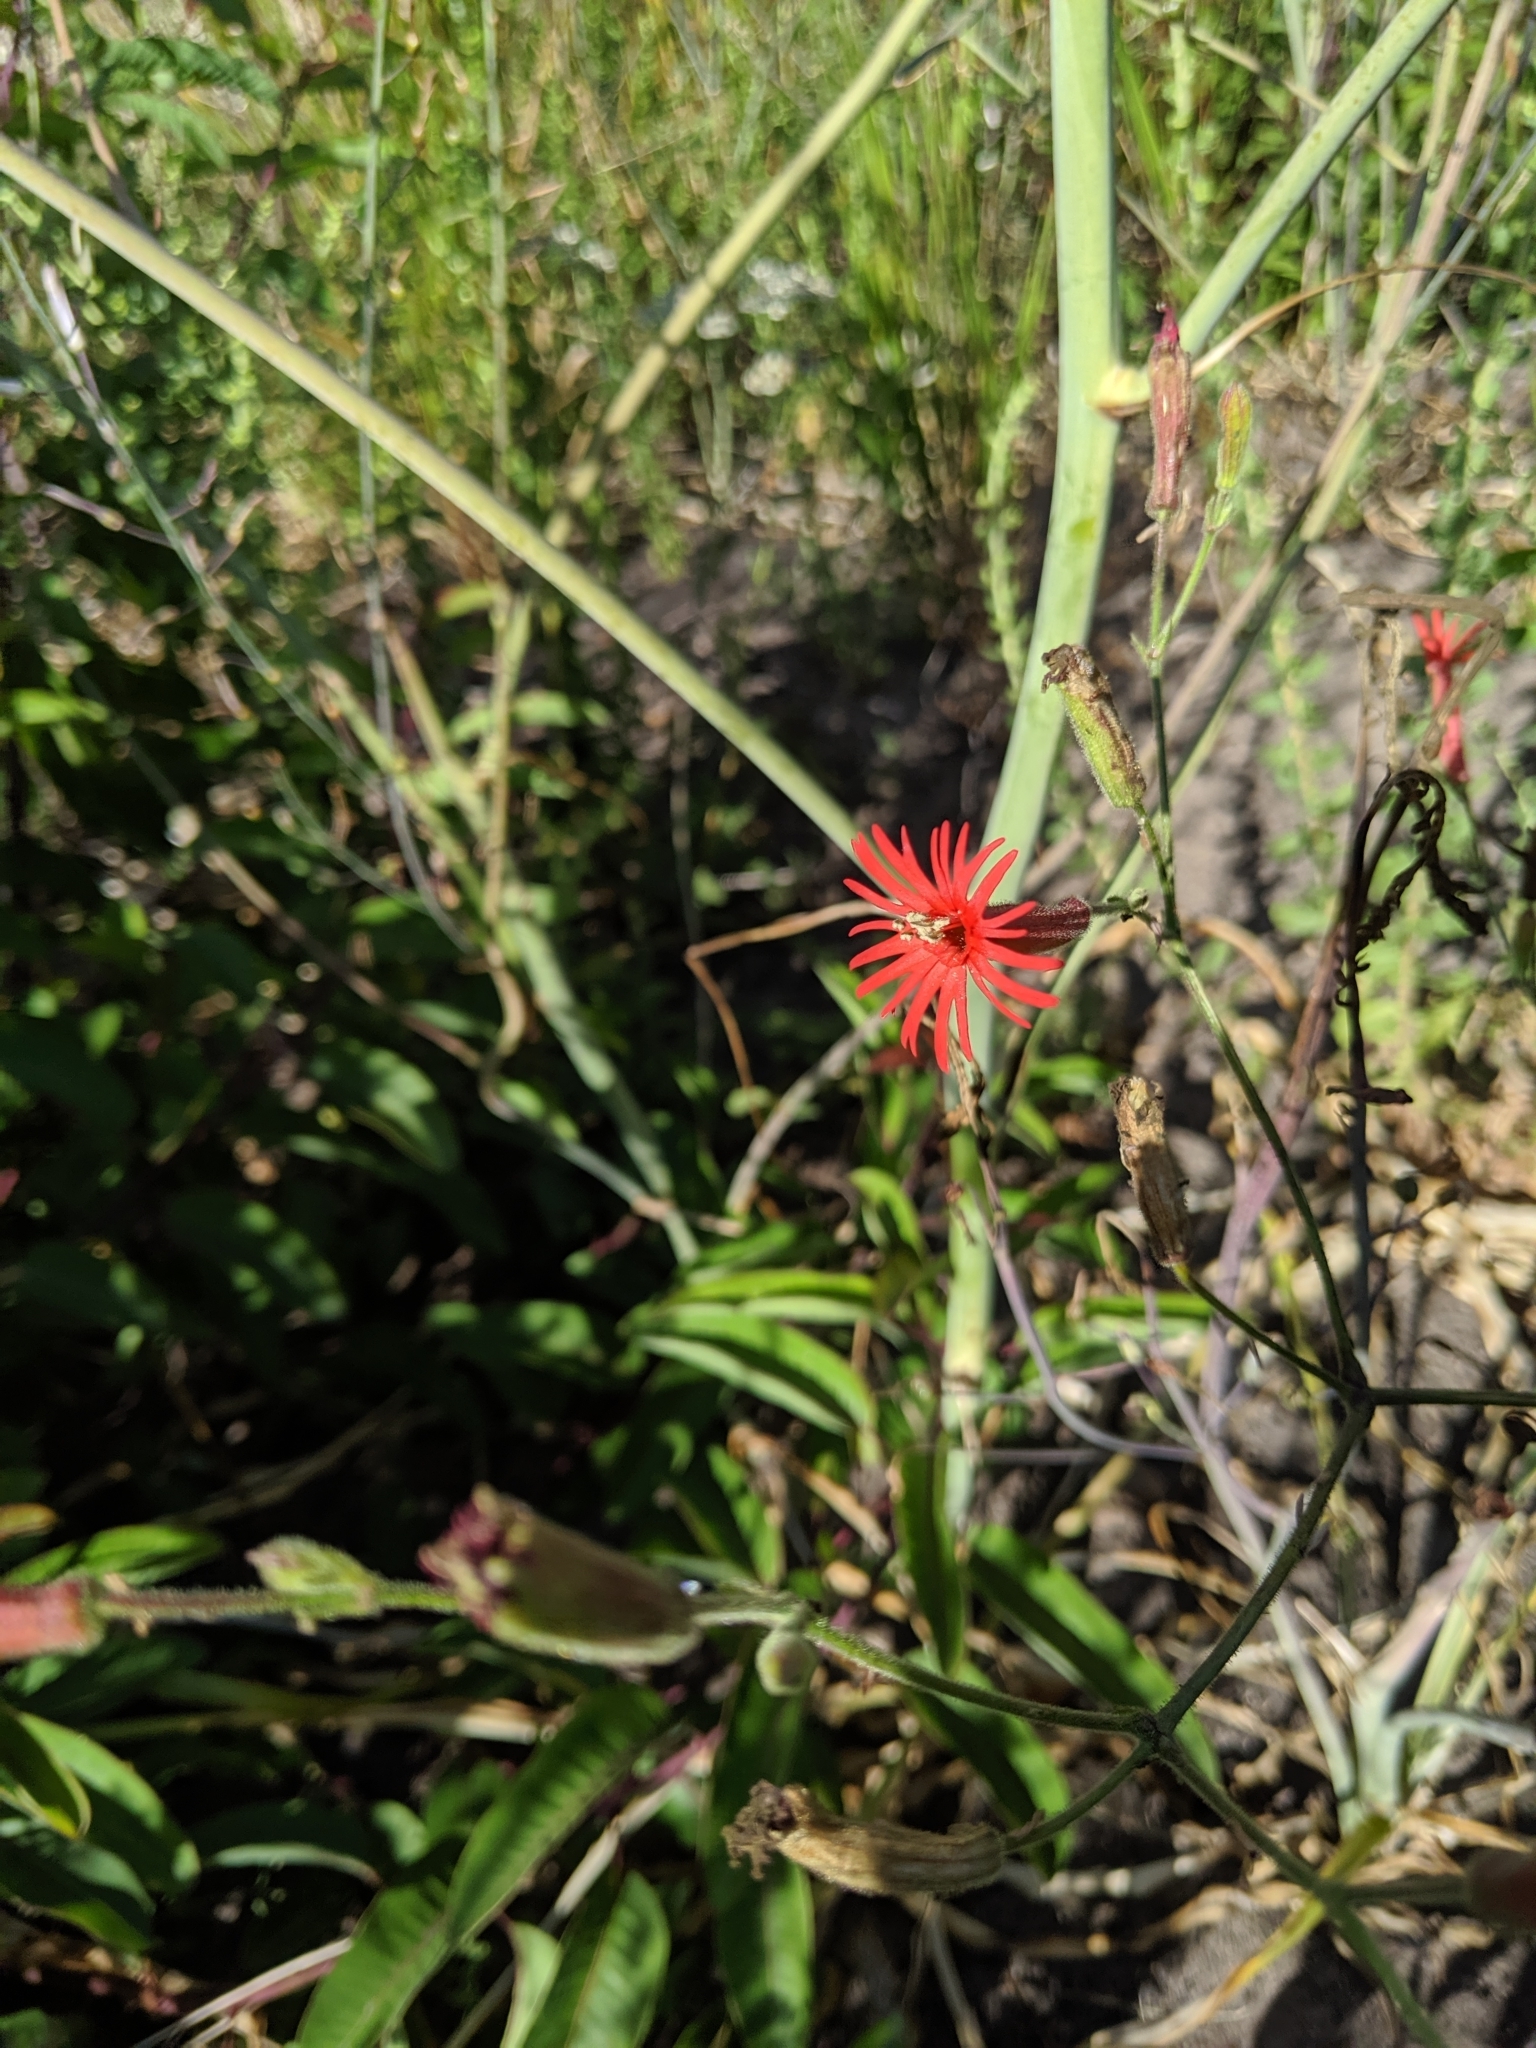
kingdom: Plantae
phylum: Tracheophyta
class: Magnoliopsida
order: Caryophyllales
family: Caryophyllaceae
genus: Silene
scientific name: Silene laciniata
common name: Indian-pink
